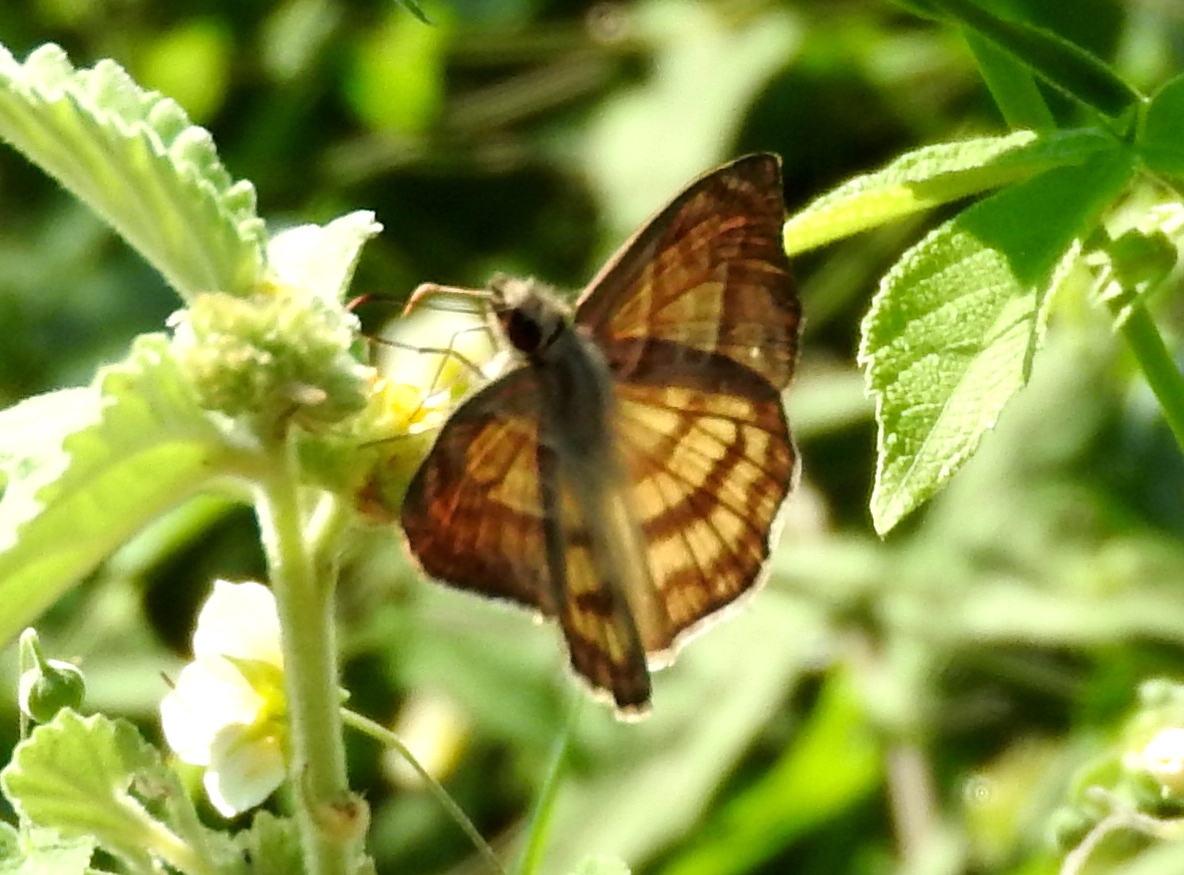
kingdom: Animalia
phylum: Arthropoda
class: Insecta
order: Lepidoptera
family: Hesperiidae
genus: Timochares
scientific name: Timochares trifasciata
